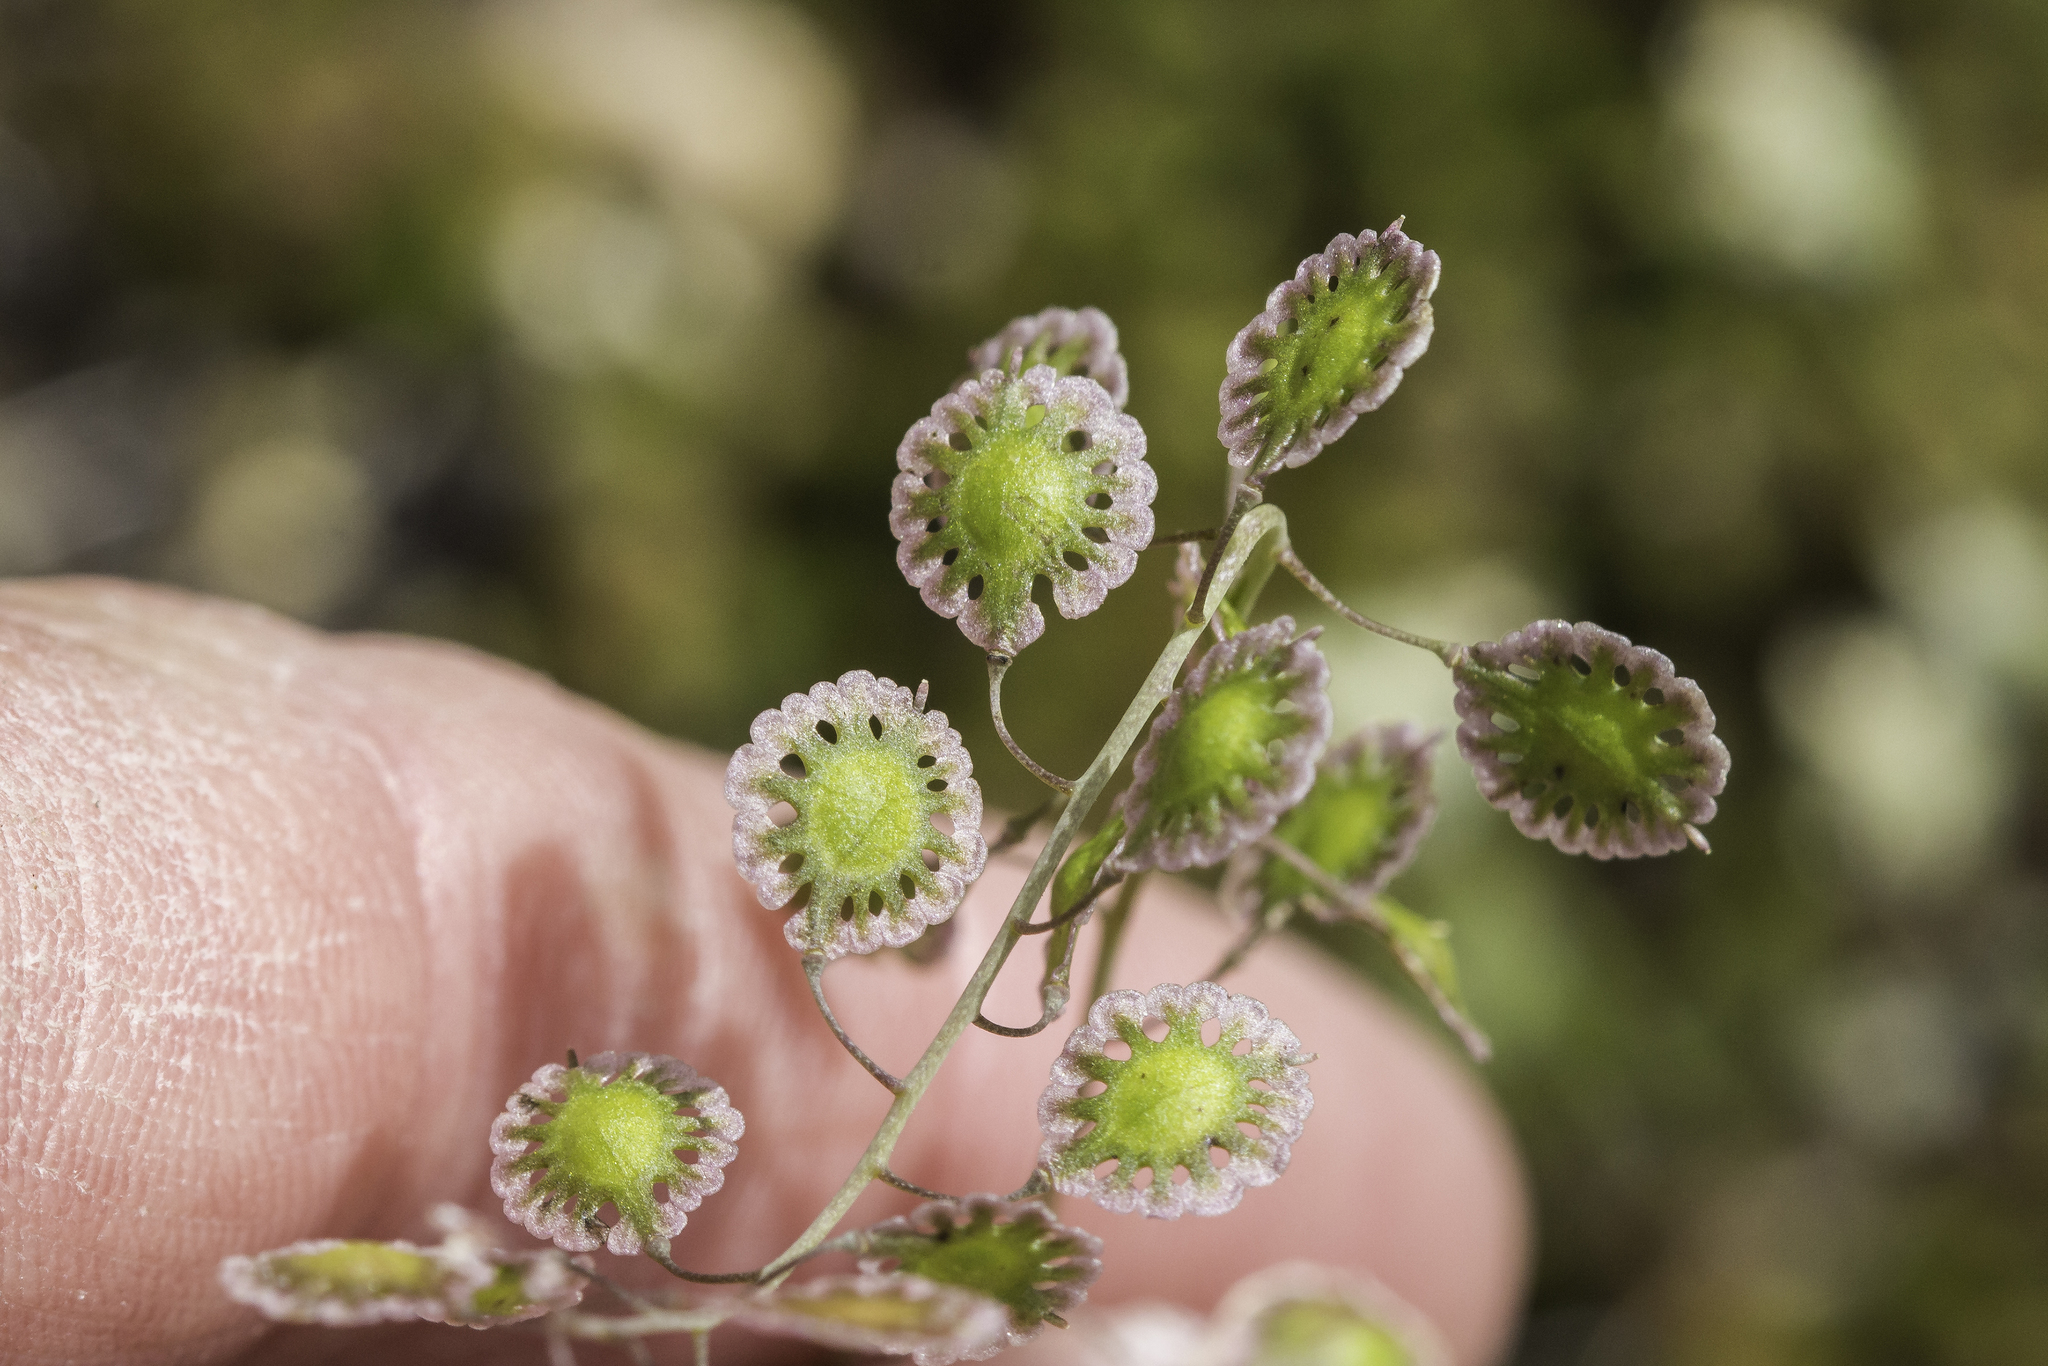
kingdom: Plantae
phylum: Tracheophyta
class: Magnoliopsida
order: Brassicales
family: Brassicaceae
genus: Thysanocarpus
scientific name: Thysanocarpus curvipes
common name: Sand fringepod
